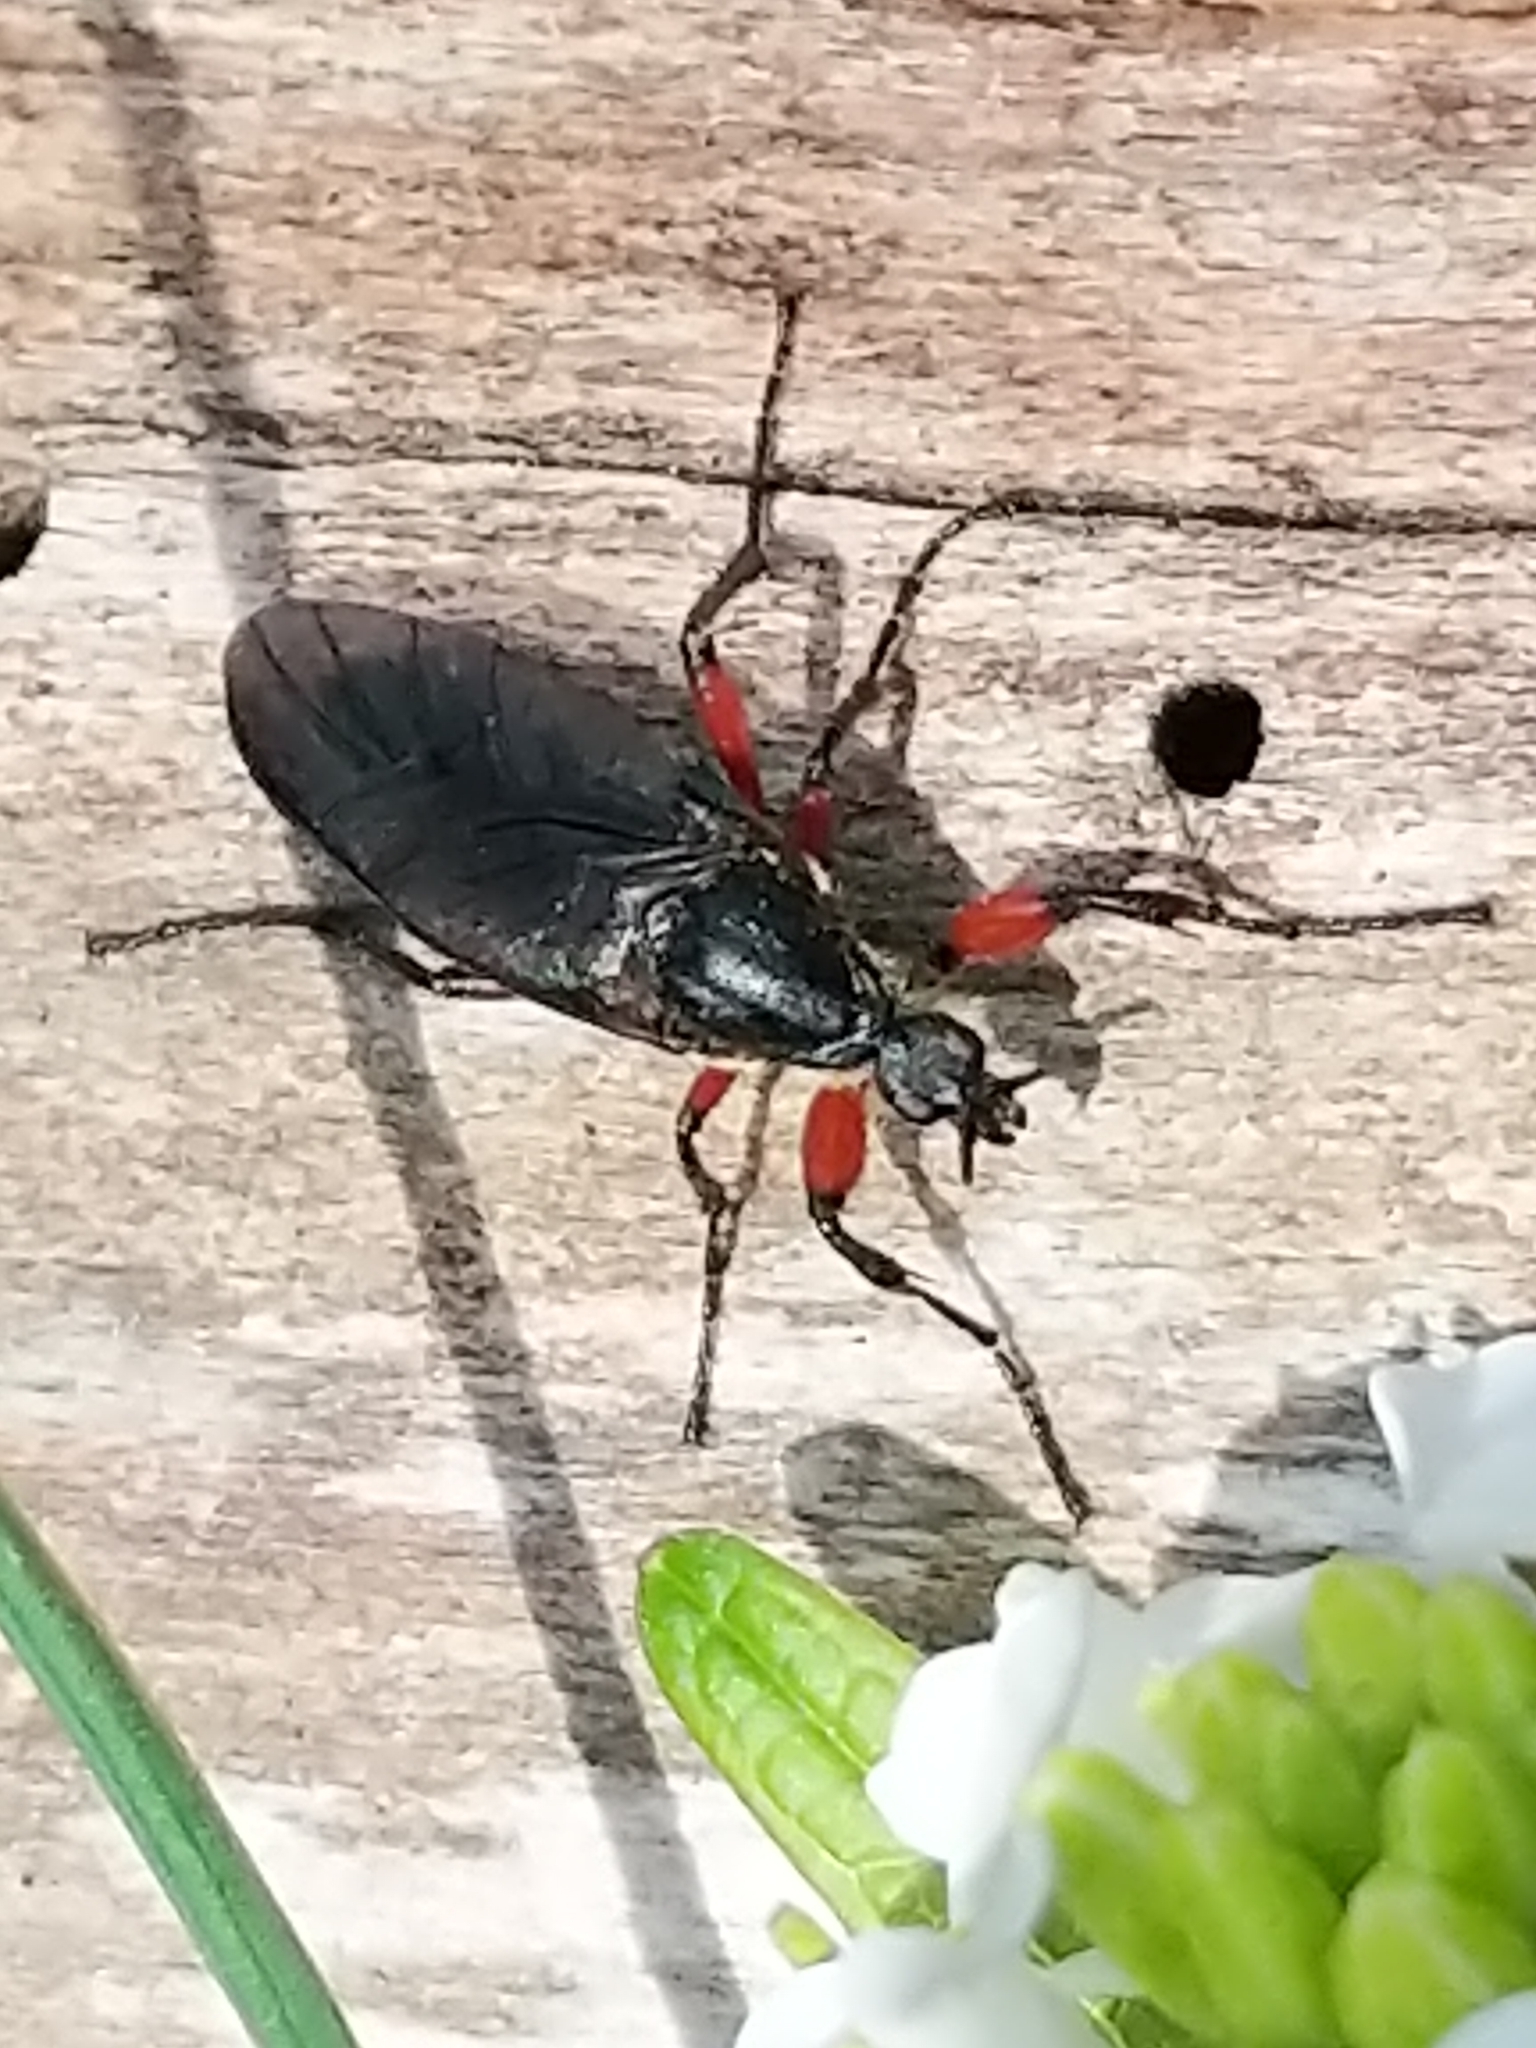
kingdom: Animalia
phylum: Arthropoda
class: Insecta
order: Diptera
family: Bibionidae
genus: Bibio
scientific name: Bibio femoratus
